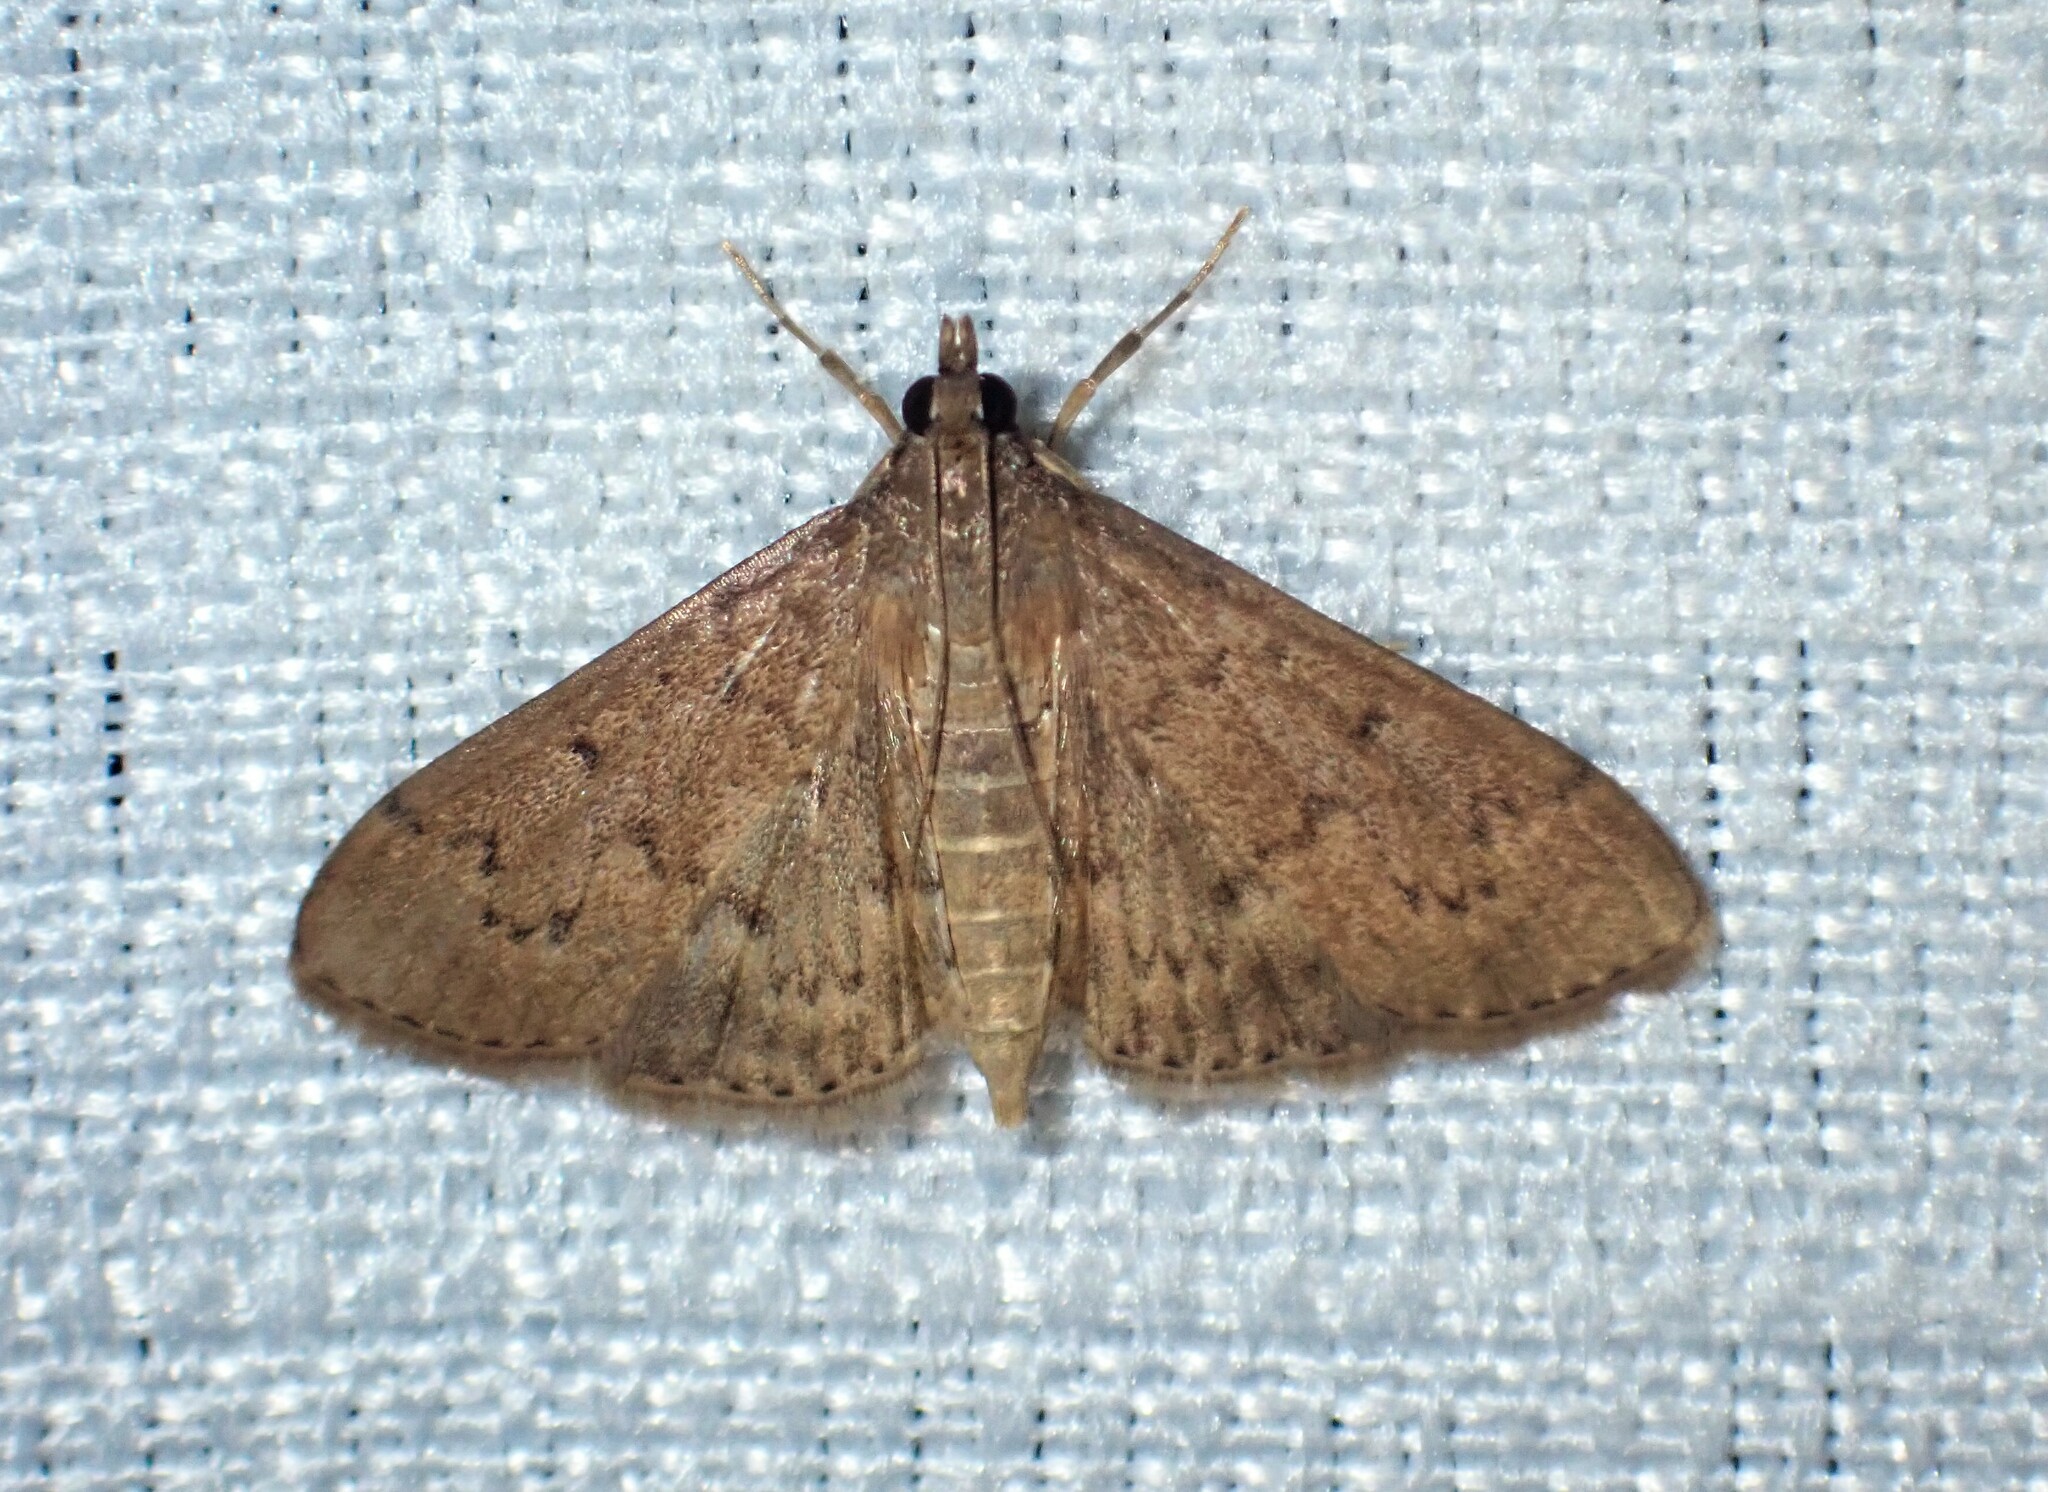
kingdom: Animalia
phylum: Arthropoda
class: Insecta
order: Lepidoptera
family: Crambidae
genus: Herpetogramma
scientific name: Herpetogramma licarsisalis
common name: Grass webworm
